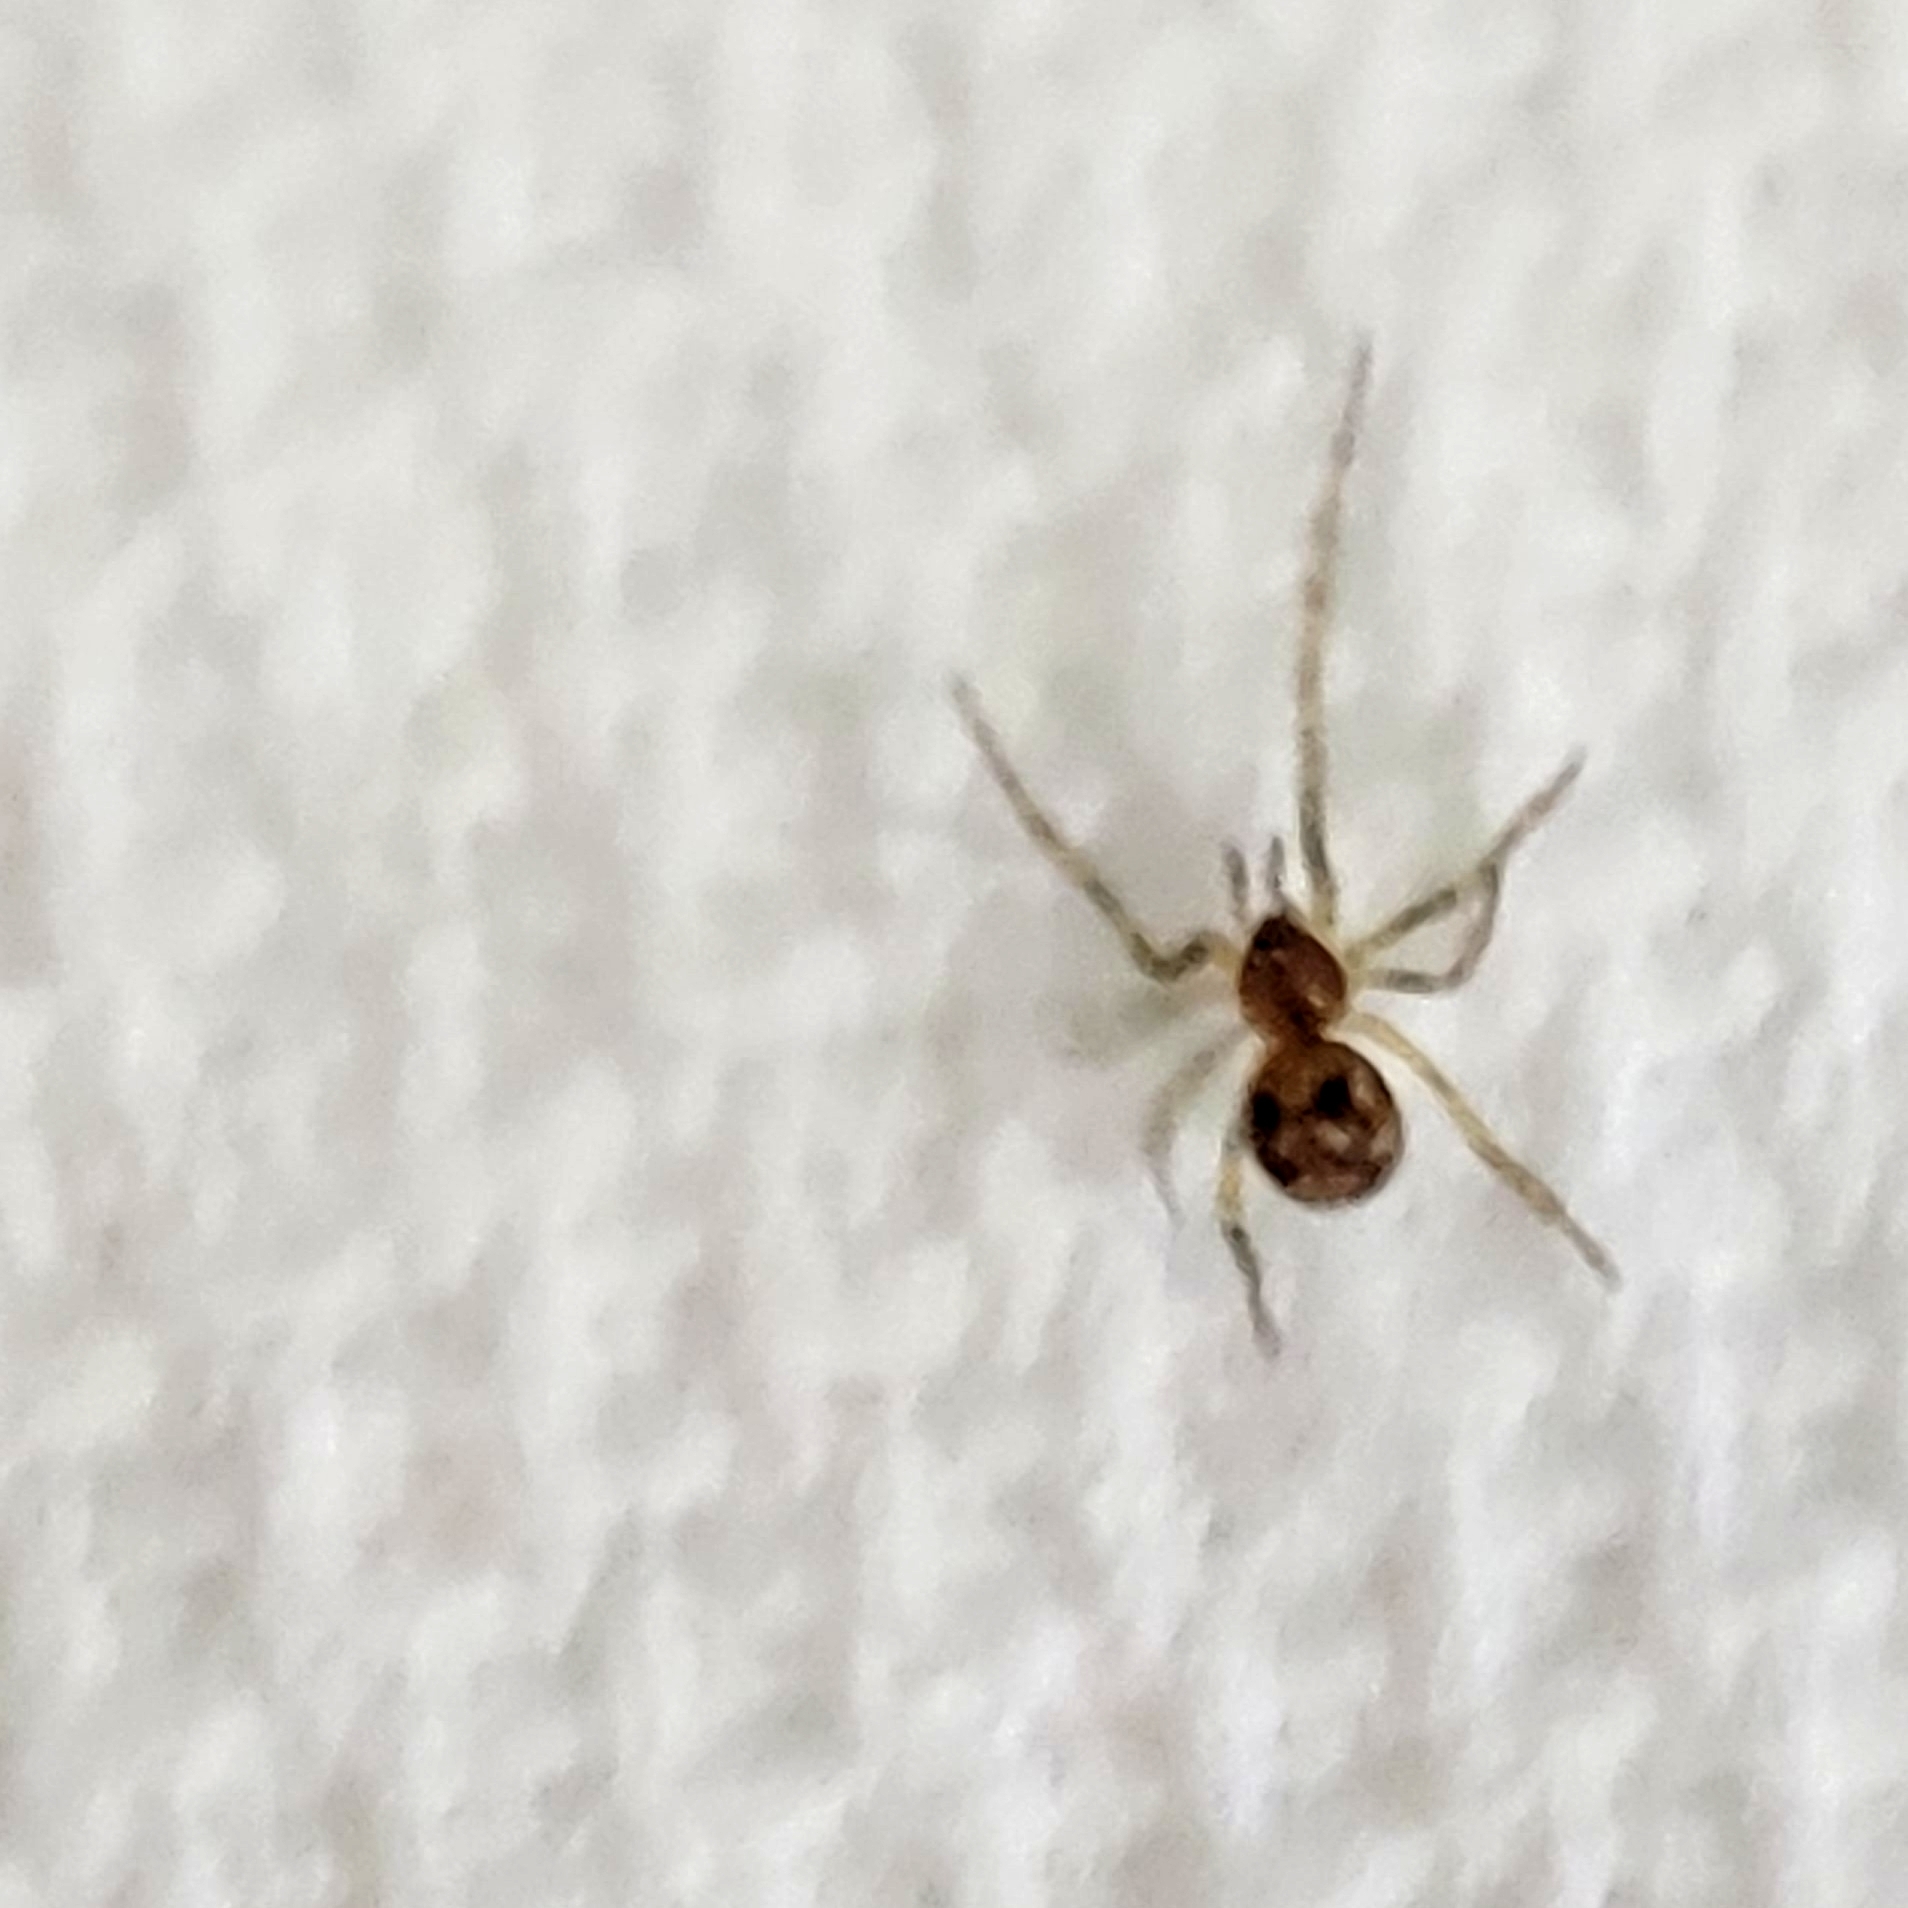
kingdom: Animalia
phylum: Arthropoda
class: Arachnida
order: Araneae
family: Theridiidae
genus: Steatoda
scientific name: Steatoda triangulosa
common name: Triangulate bud spider
